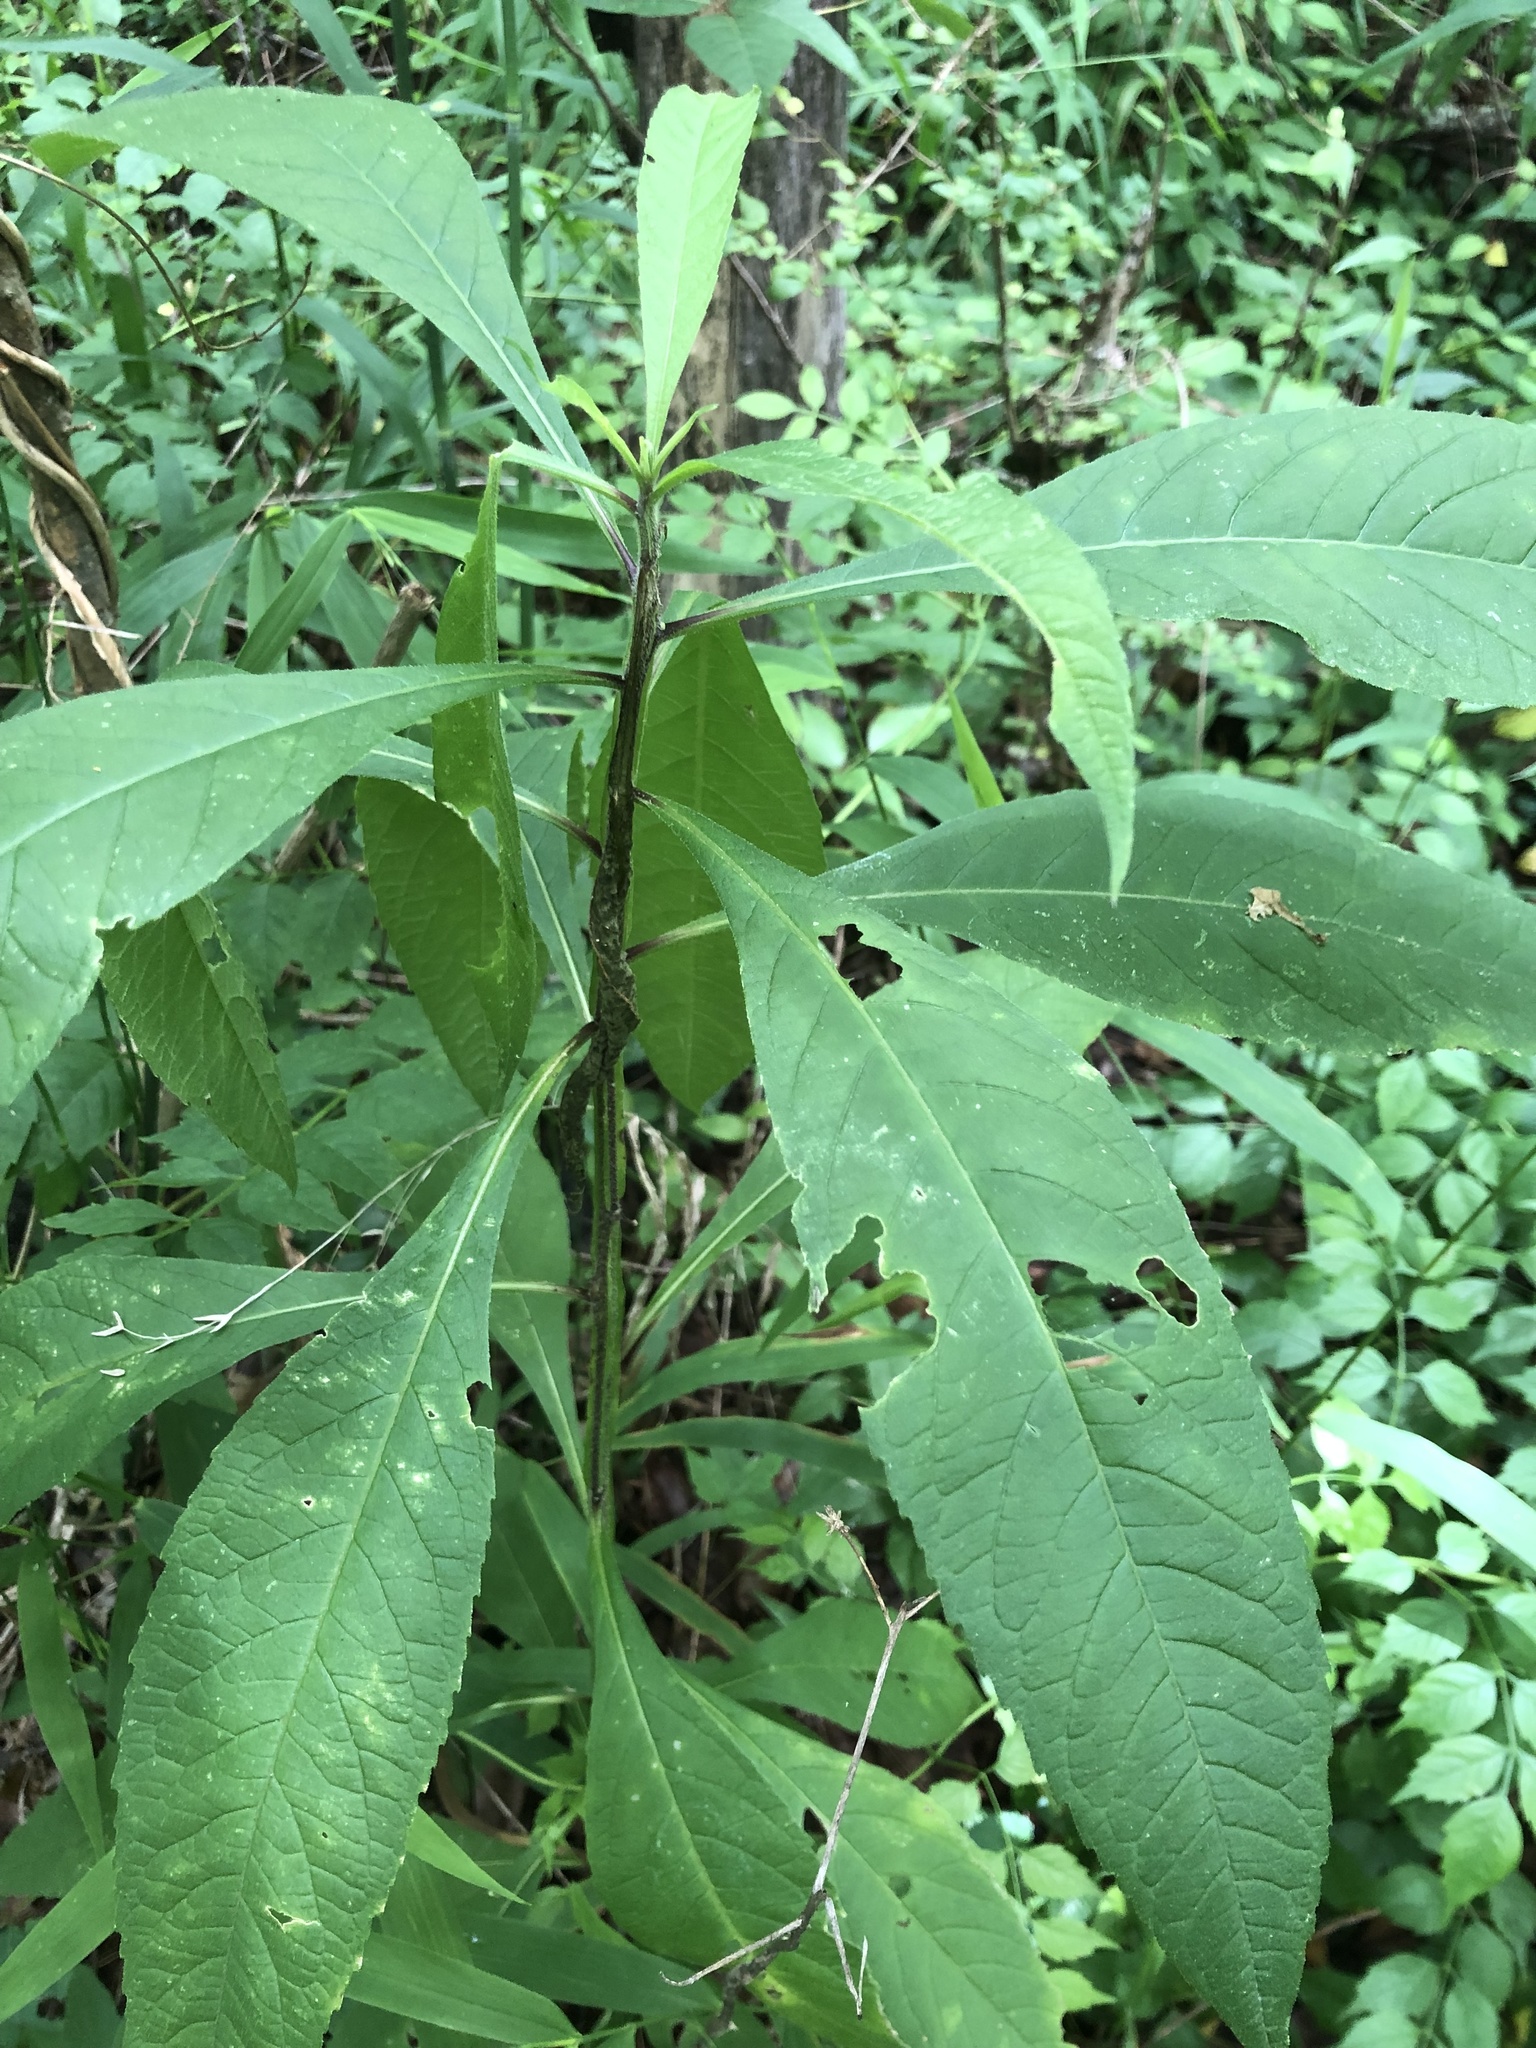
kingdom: Plantae
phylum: Tracheophyta
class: Magnoliopsida
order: Asterales
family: Asteraceae
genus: Verbesina
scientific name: Verbesina alternifolia
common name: Wingstem
